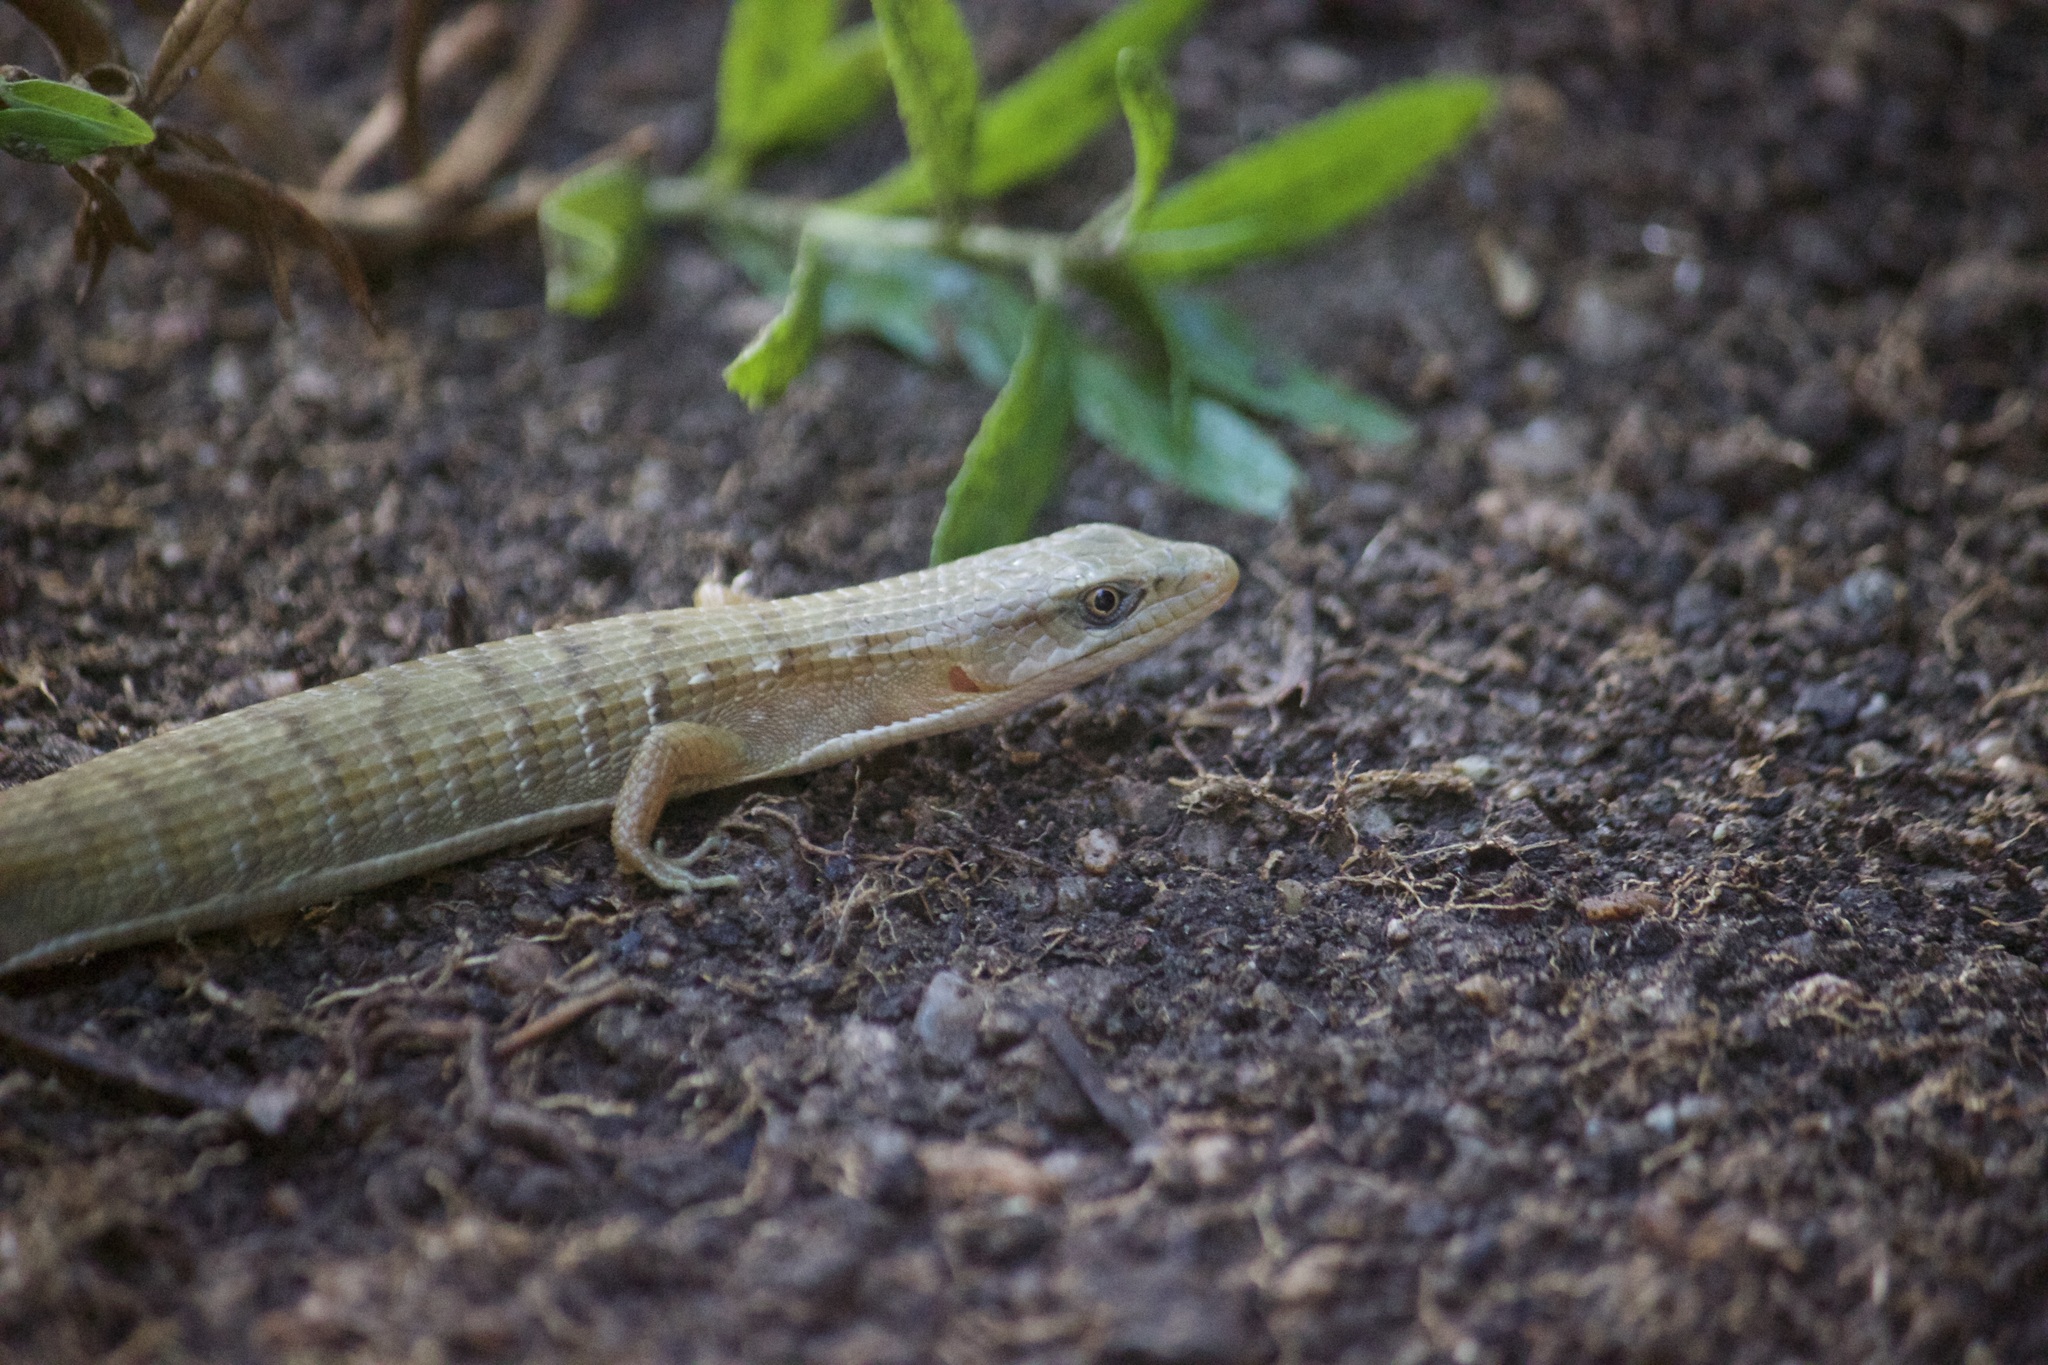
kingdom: Animalia
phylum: Chordata
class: Squamata
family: Anguidae
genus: Elgaria
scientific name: Elgaria multicarinata
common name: Southern alligator lizard
